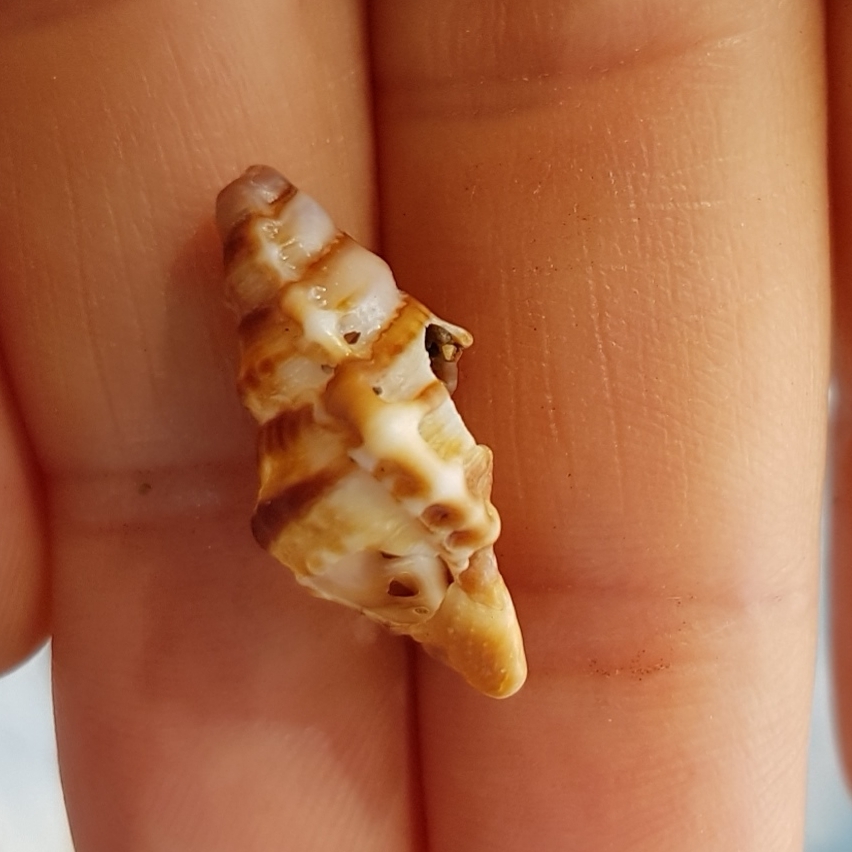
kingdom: Animalia
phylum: Mollusca
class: Gastropoda
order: Littorinimorpha
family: Bursidae
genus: Alanbeuella
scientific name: Alanbeuella corrugata
